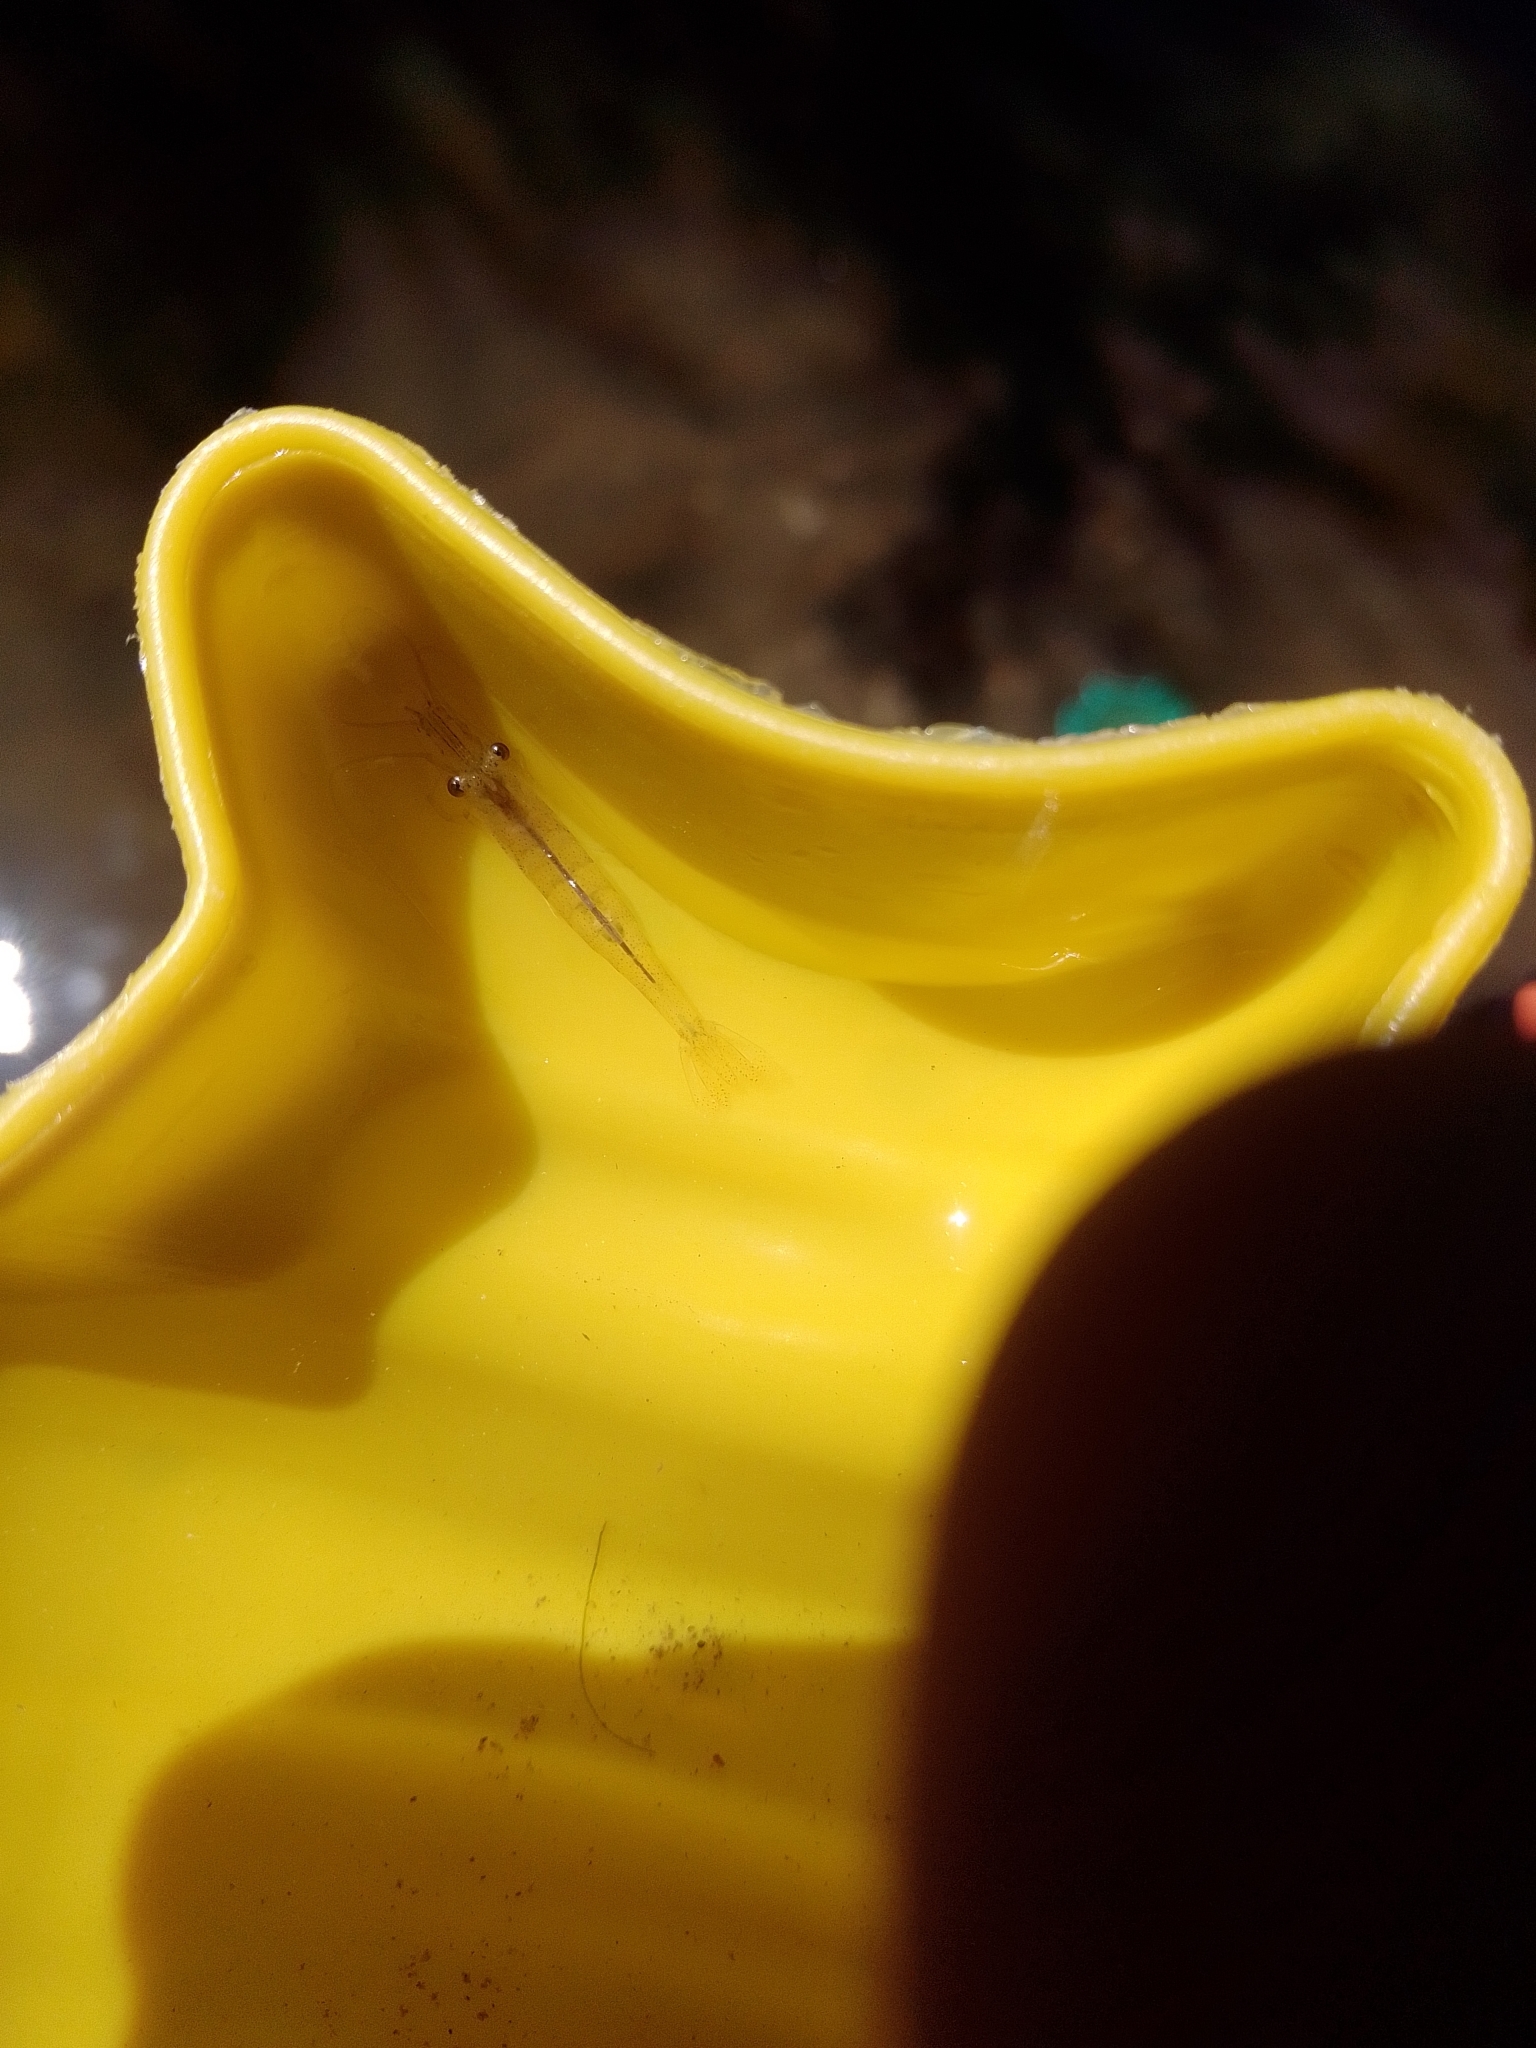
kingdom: Animalia
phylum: Arthropoda
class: Malacostraca
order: Decapoda
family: Atyidae
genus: Atyaephyra
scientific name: Atyaephyra desmarestii
